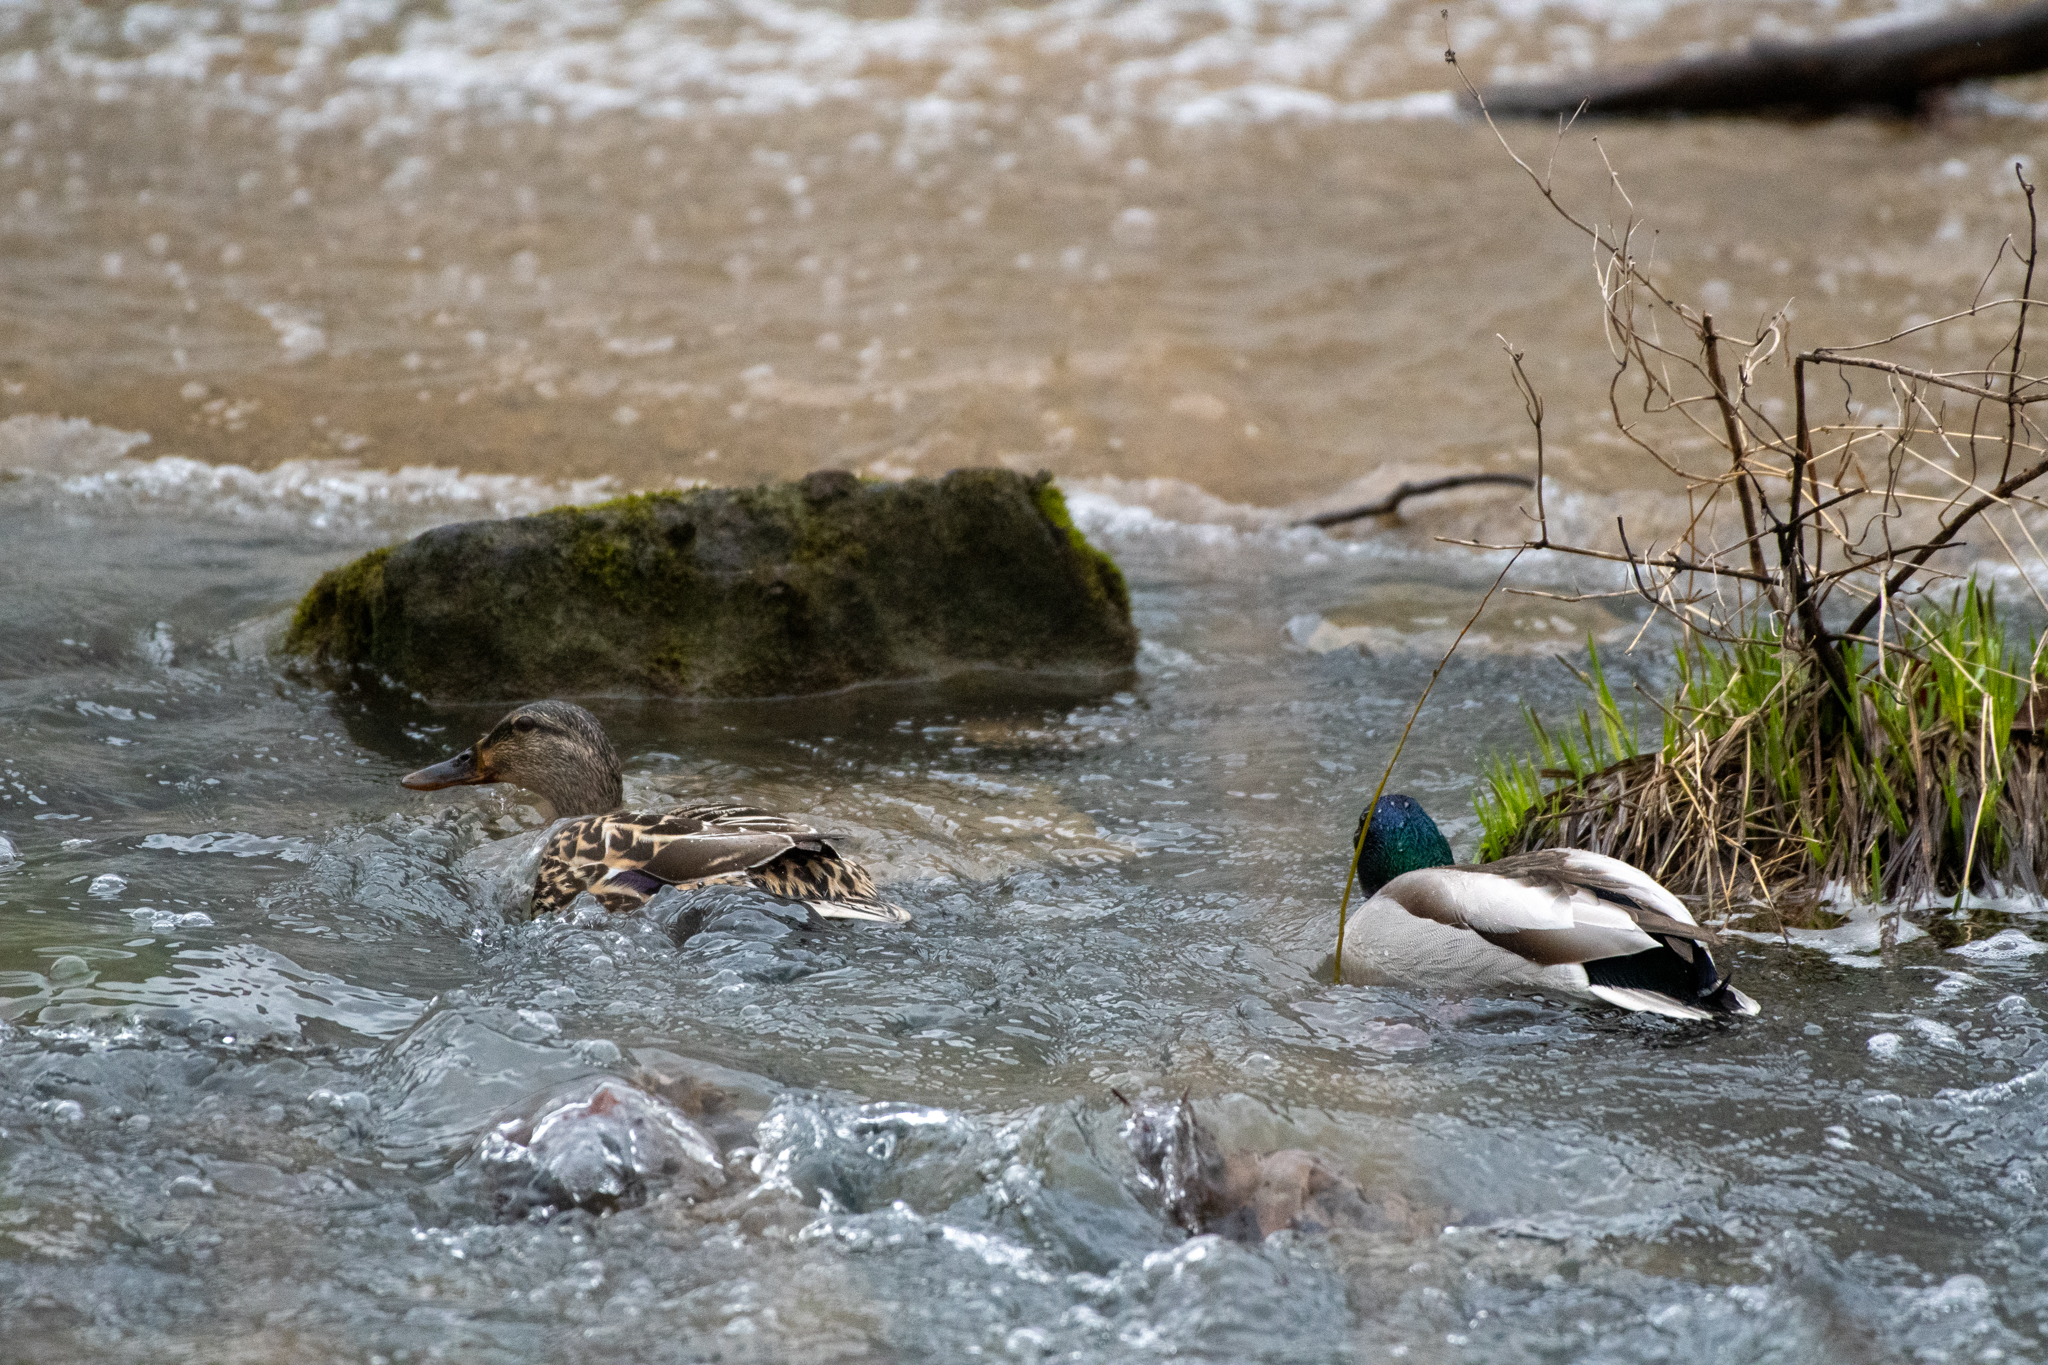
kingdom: Animalia
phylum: Chordata
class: Aves
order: Anseriformes
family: Anatidae
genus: Anas
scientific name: Anas platyrhynchos
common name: Mallard
